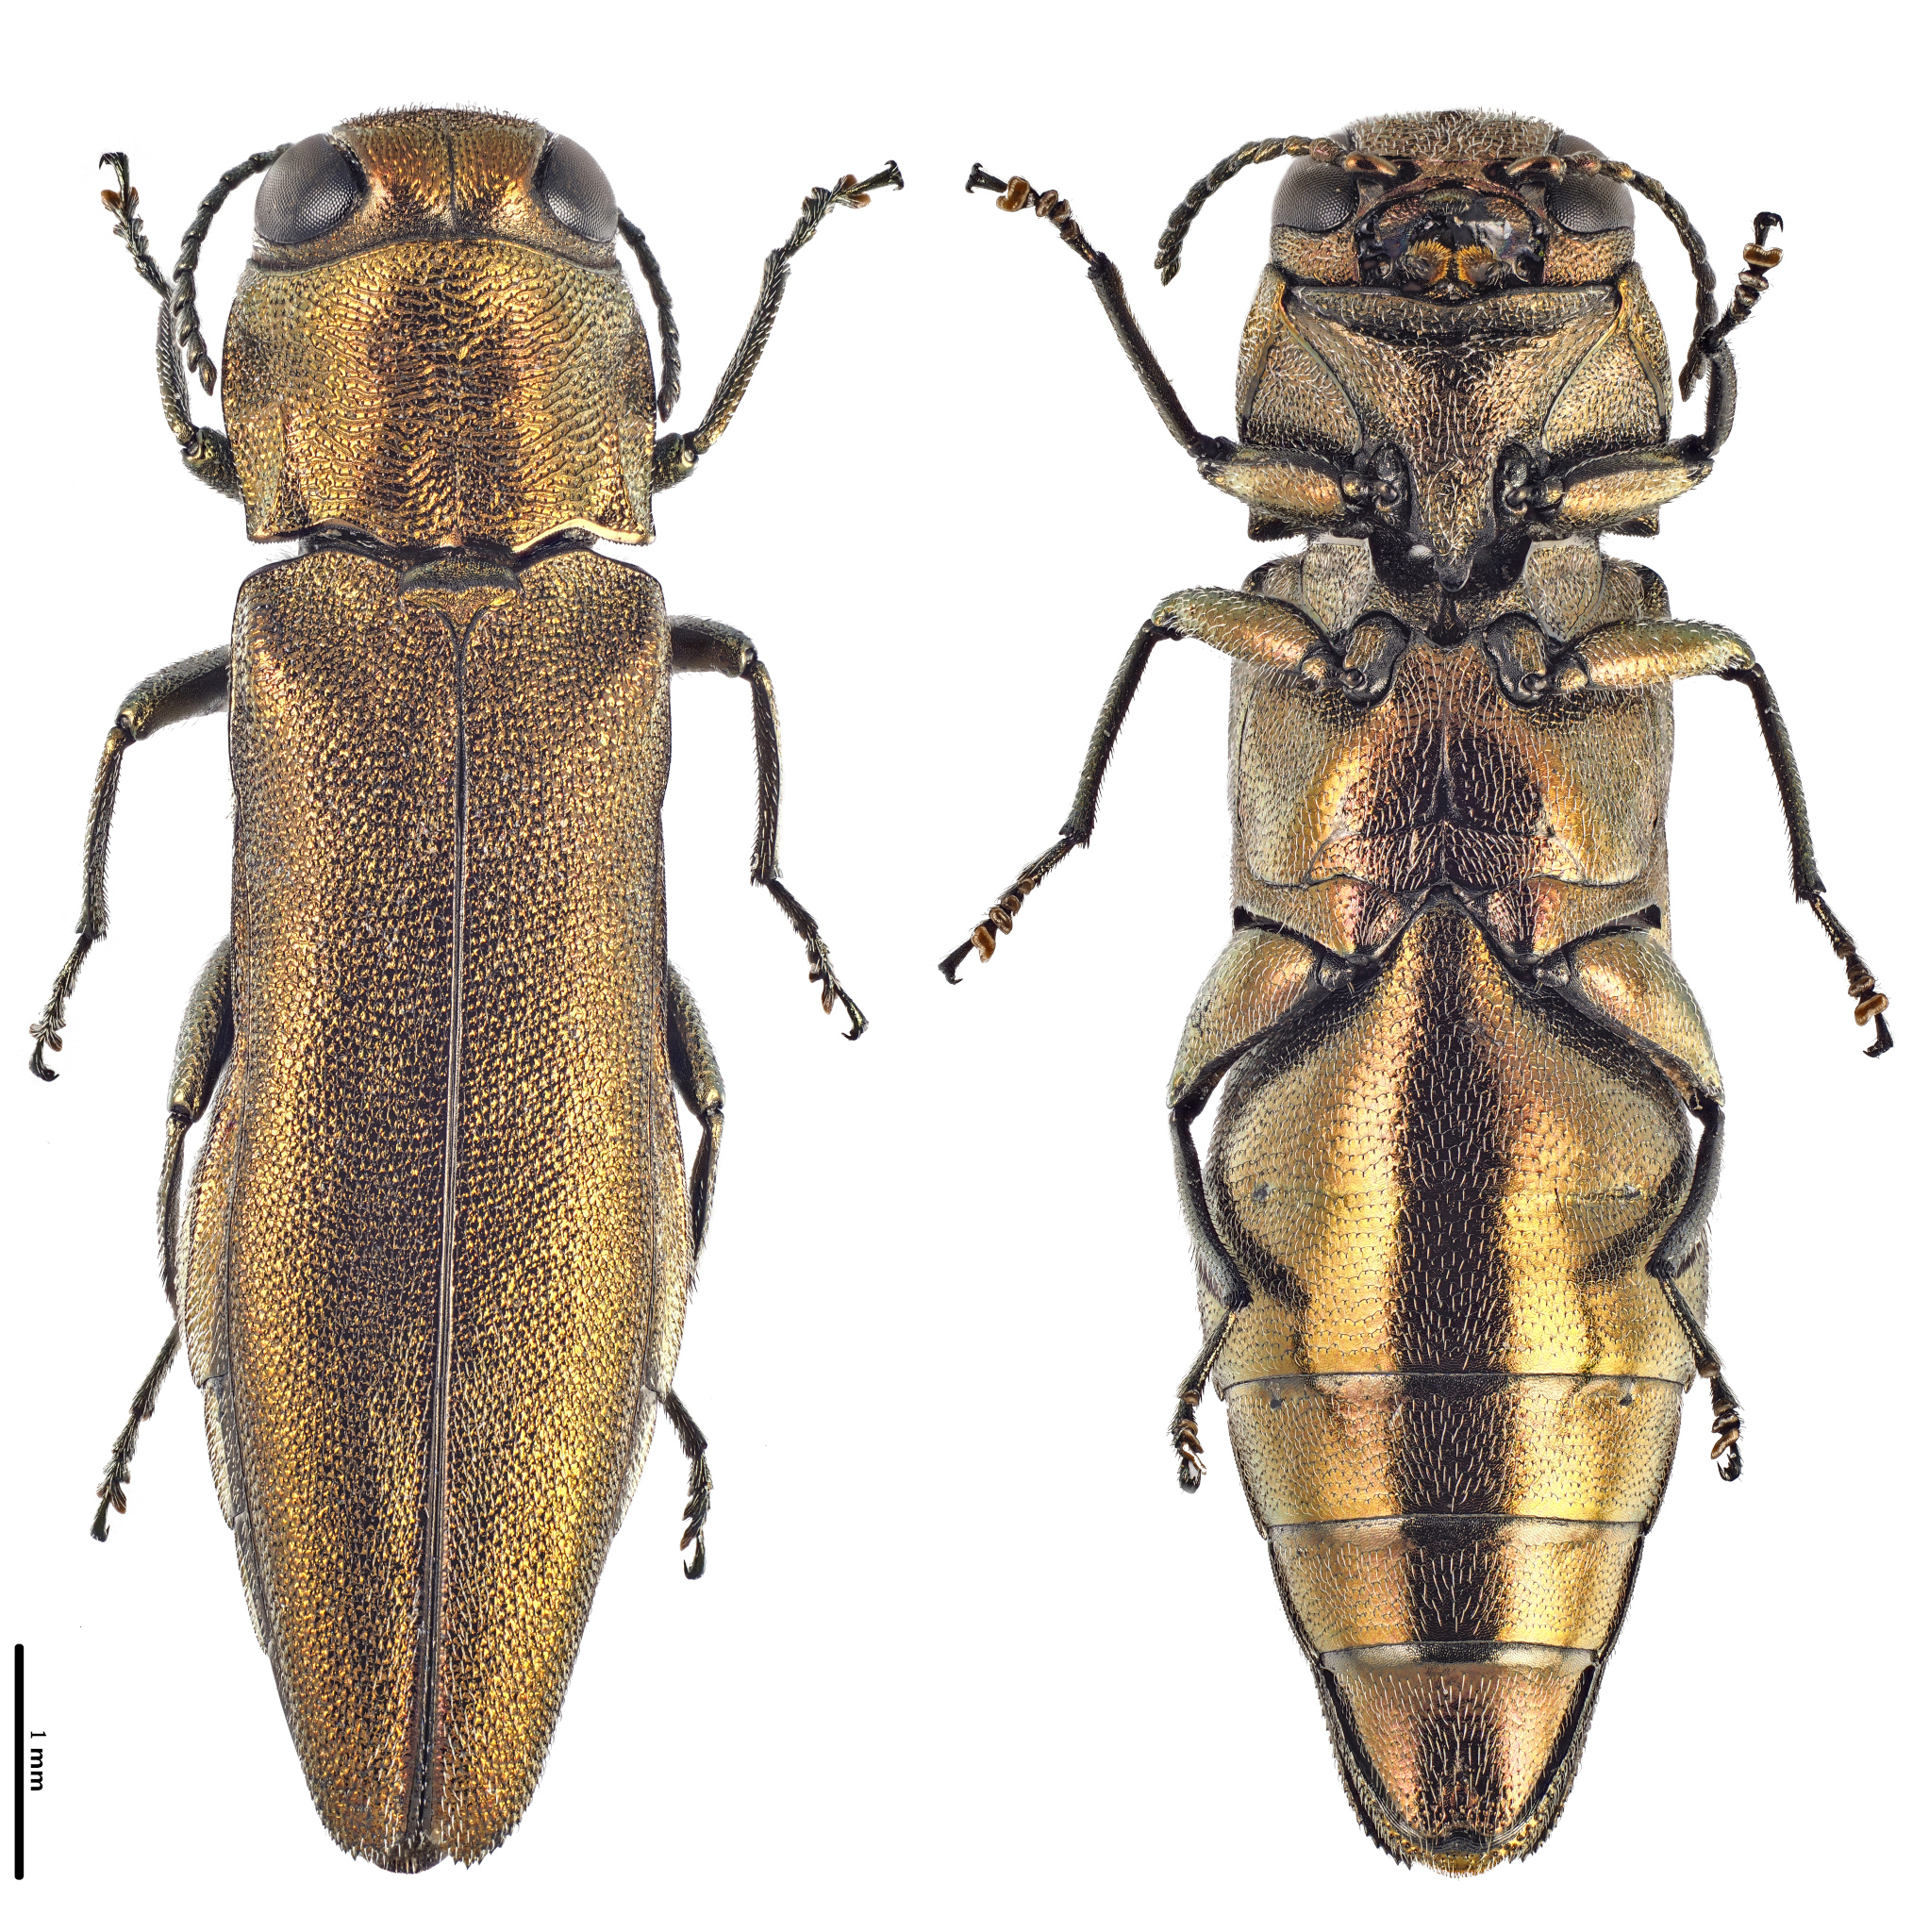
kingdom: Animalia
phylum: Arthropoda
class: Insecta
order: Coleoptera
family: Buprestidae
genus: Agrilus
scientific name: Agrilus graminis
